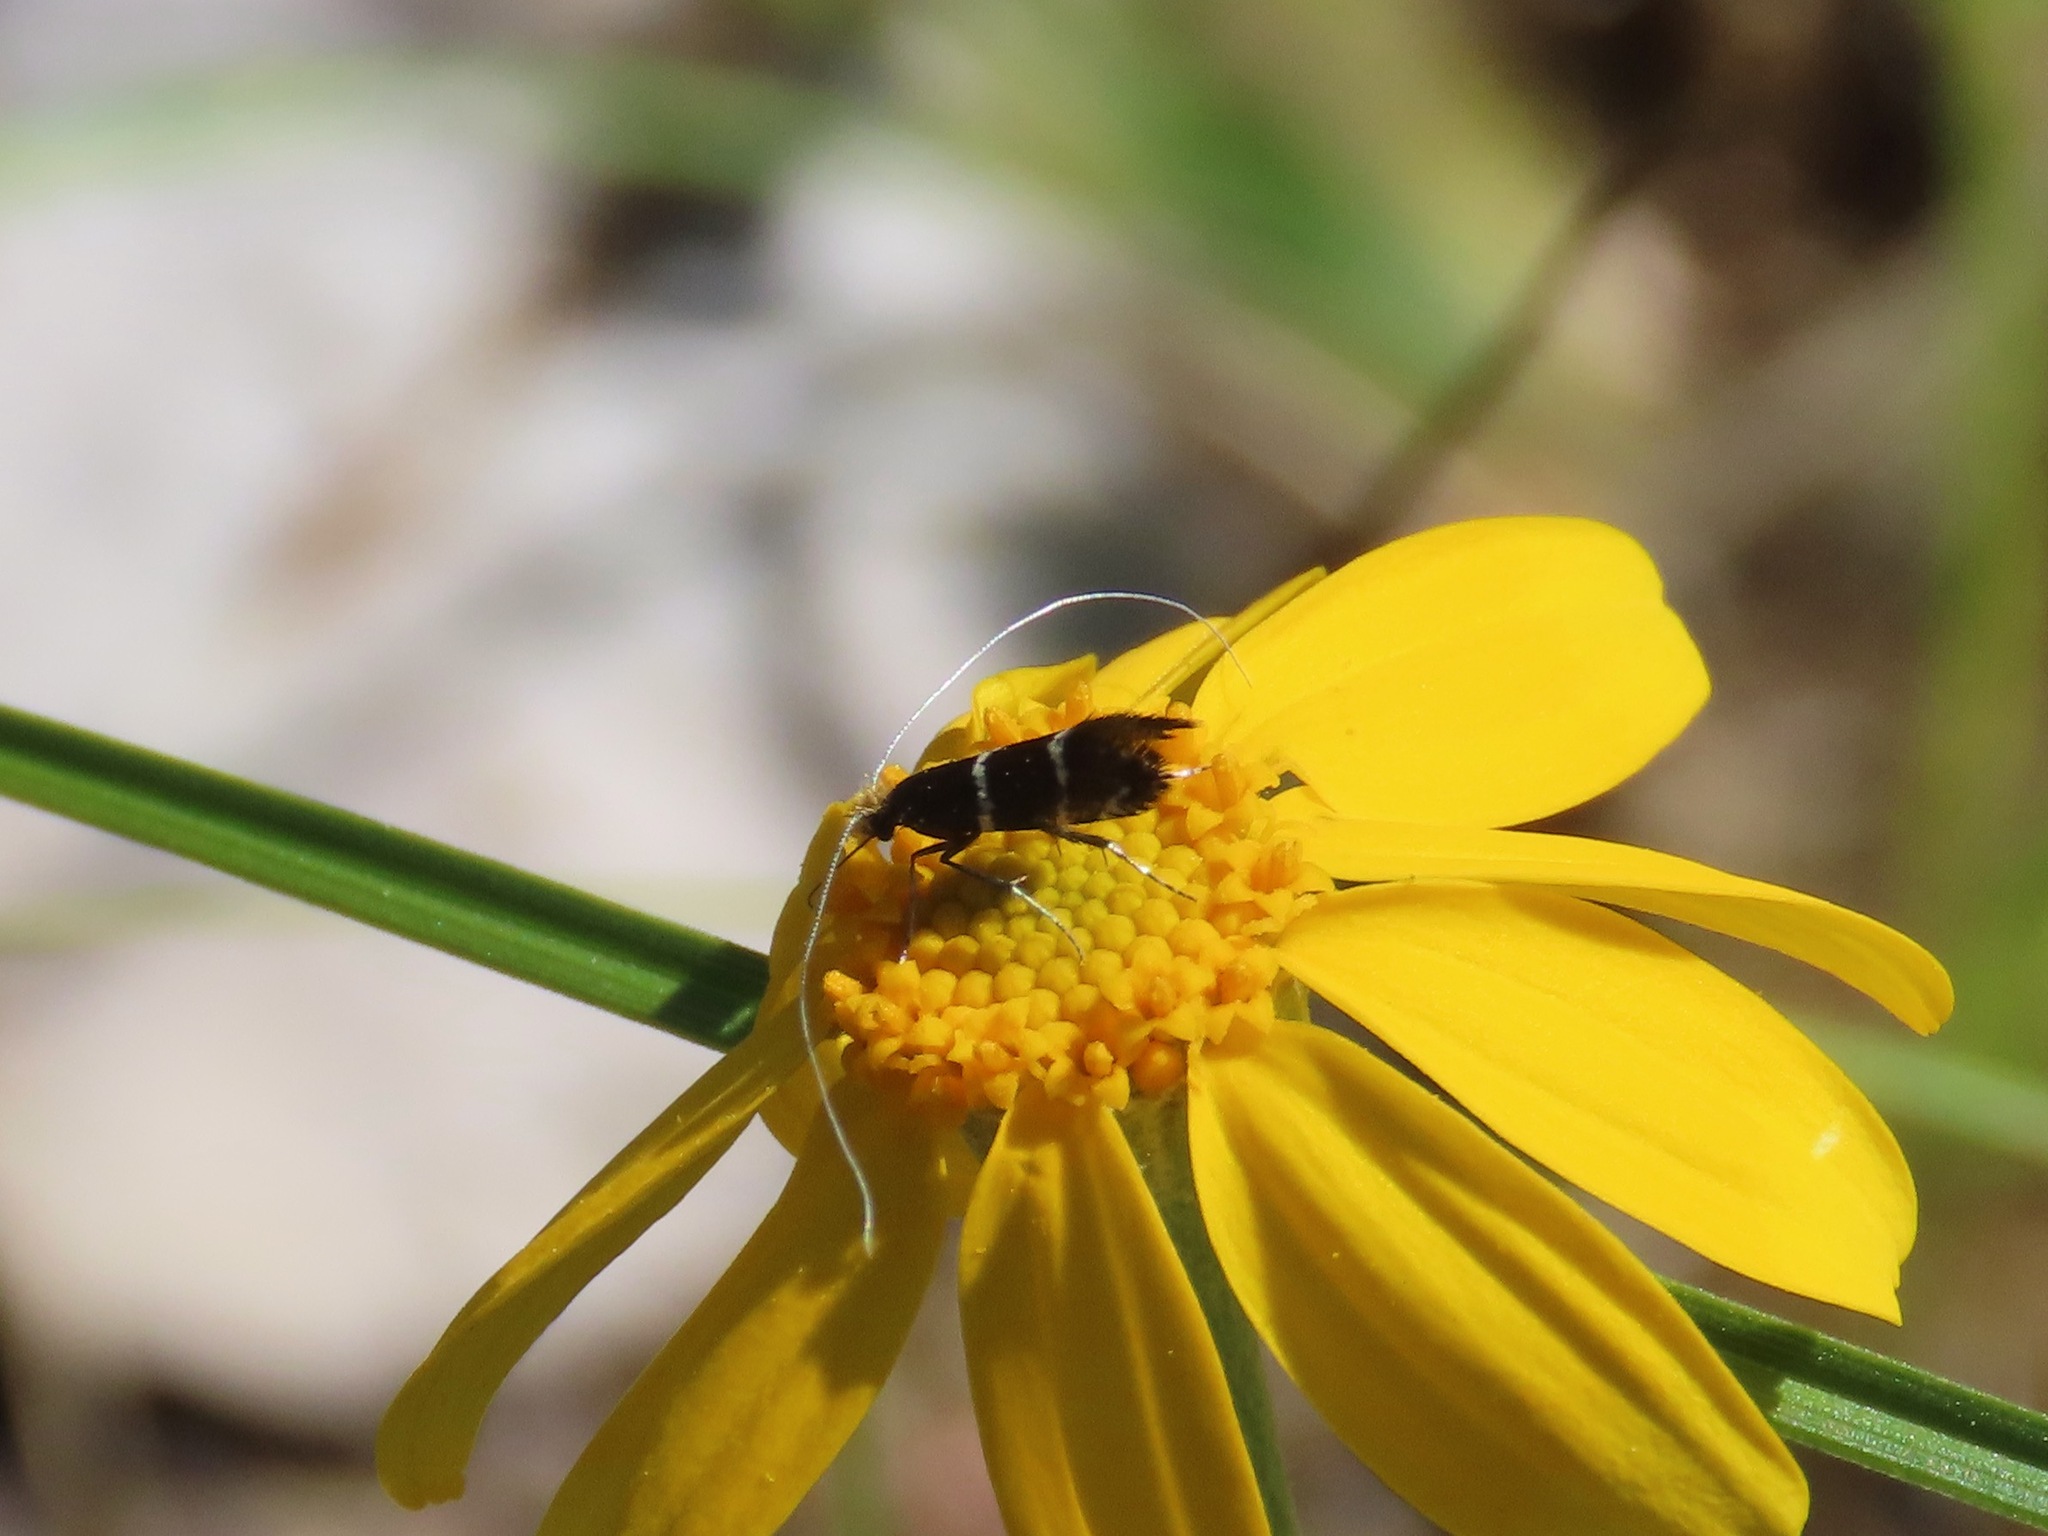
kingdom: Animalia
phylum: Arthropoda
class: Insecta
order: Lepidoptera
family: Adelidae
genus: Adela
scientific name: Adela septentrionella
